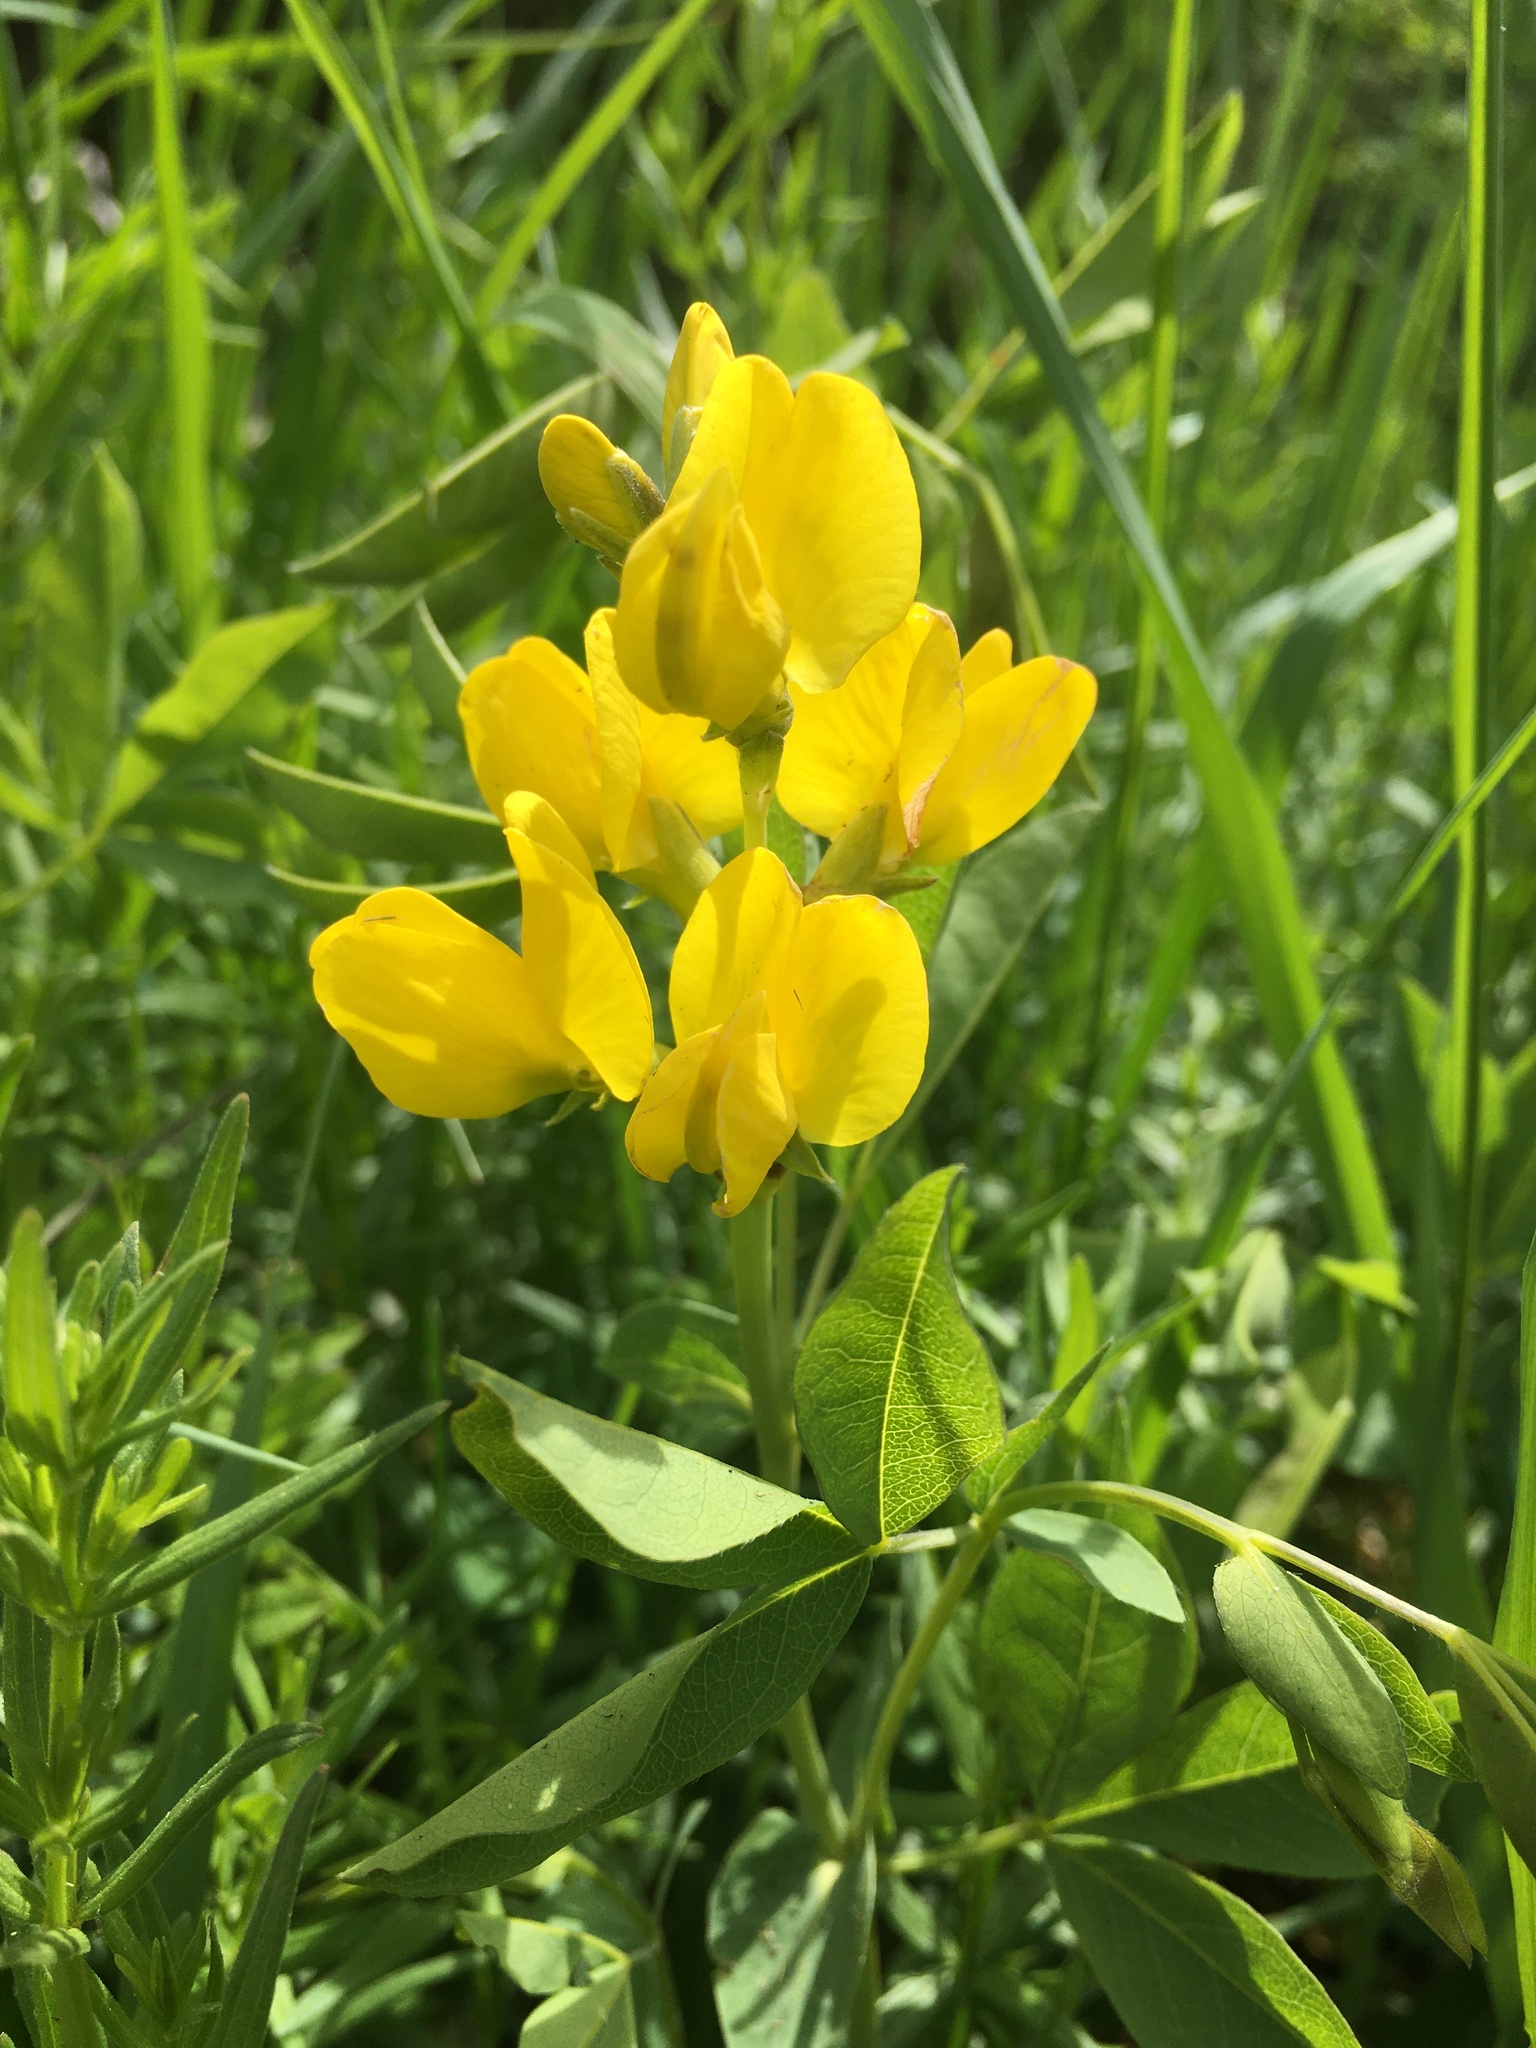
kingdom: Plantae
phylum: Tracheophyta
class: Magnoliopsida
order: Fabales
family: Fabaceae
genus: Thermopsis
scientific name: Thermopsis rhombifolia
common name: Circle-pod-pea
